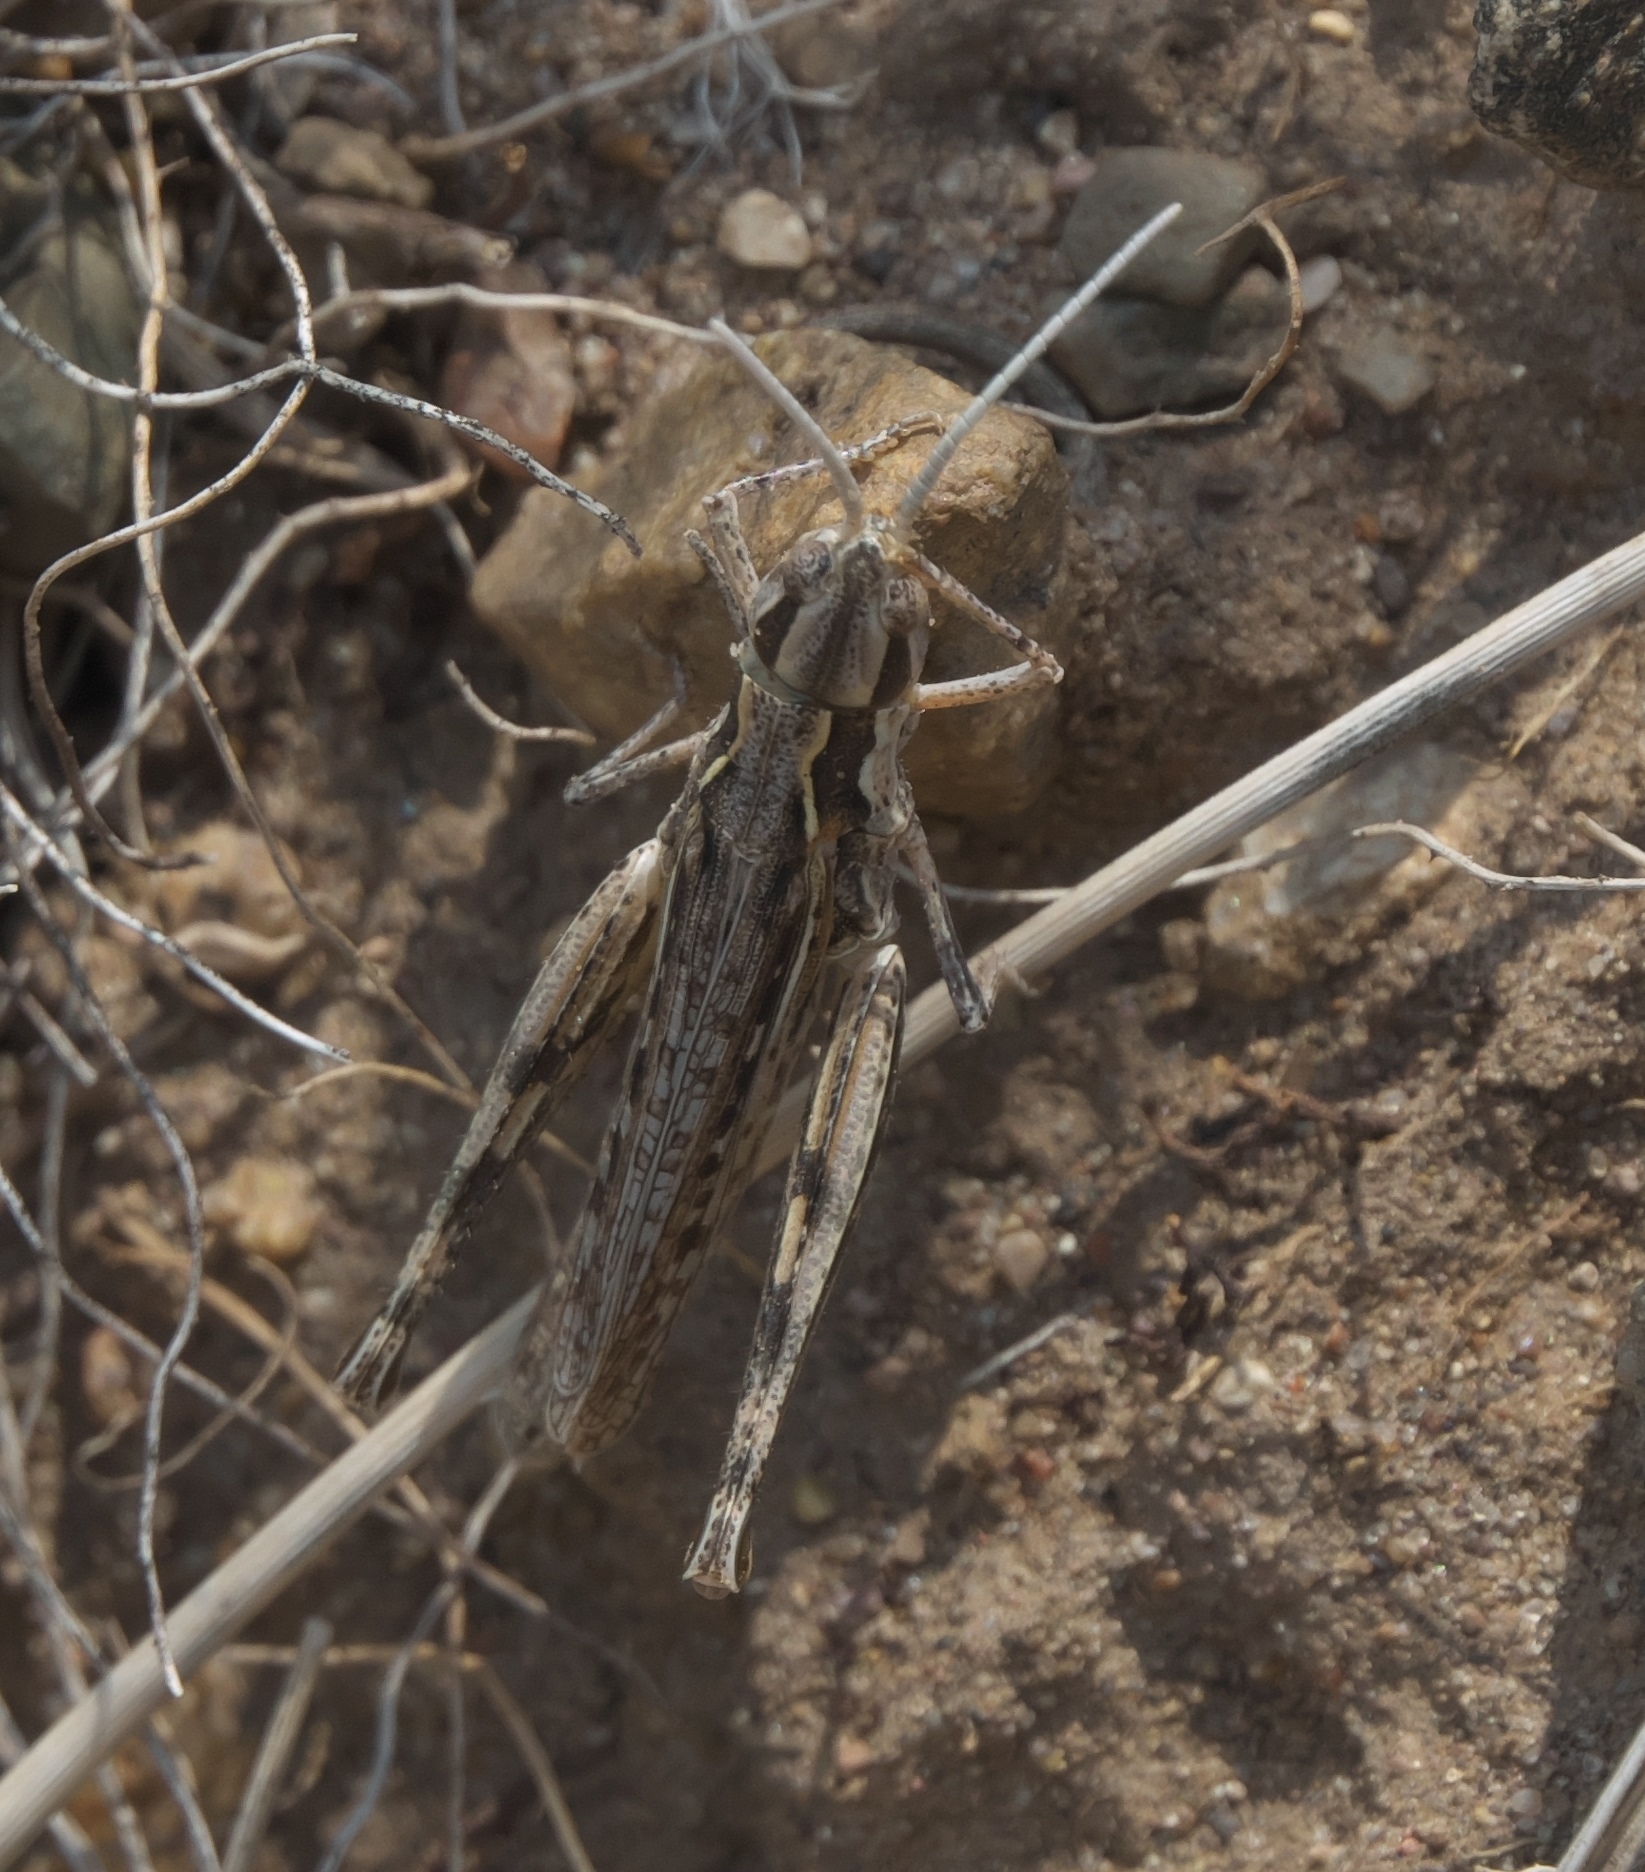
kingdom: Animalia
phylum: Arthropoda
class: Insecta
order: Orthoptera
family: Acrididae
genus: Cordillacris
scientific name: Cordillacris occipitalis
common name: Spotted-winged grasshopper
